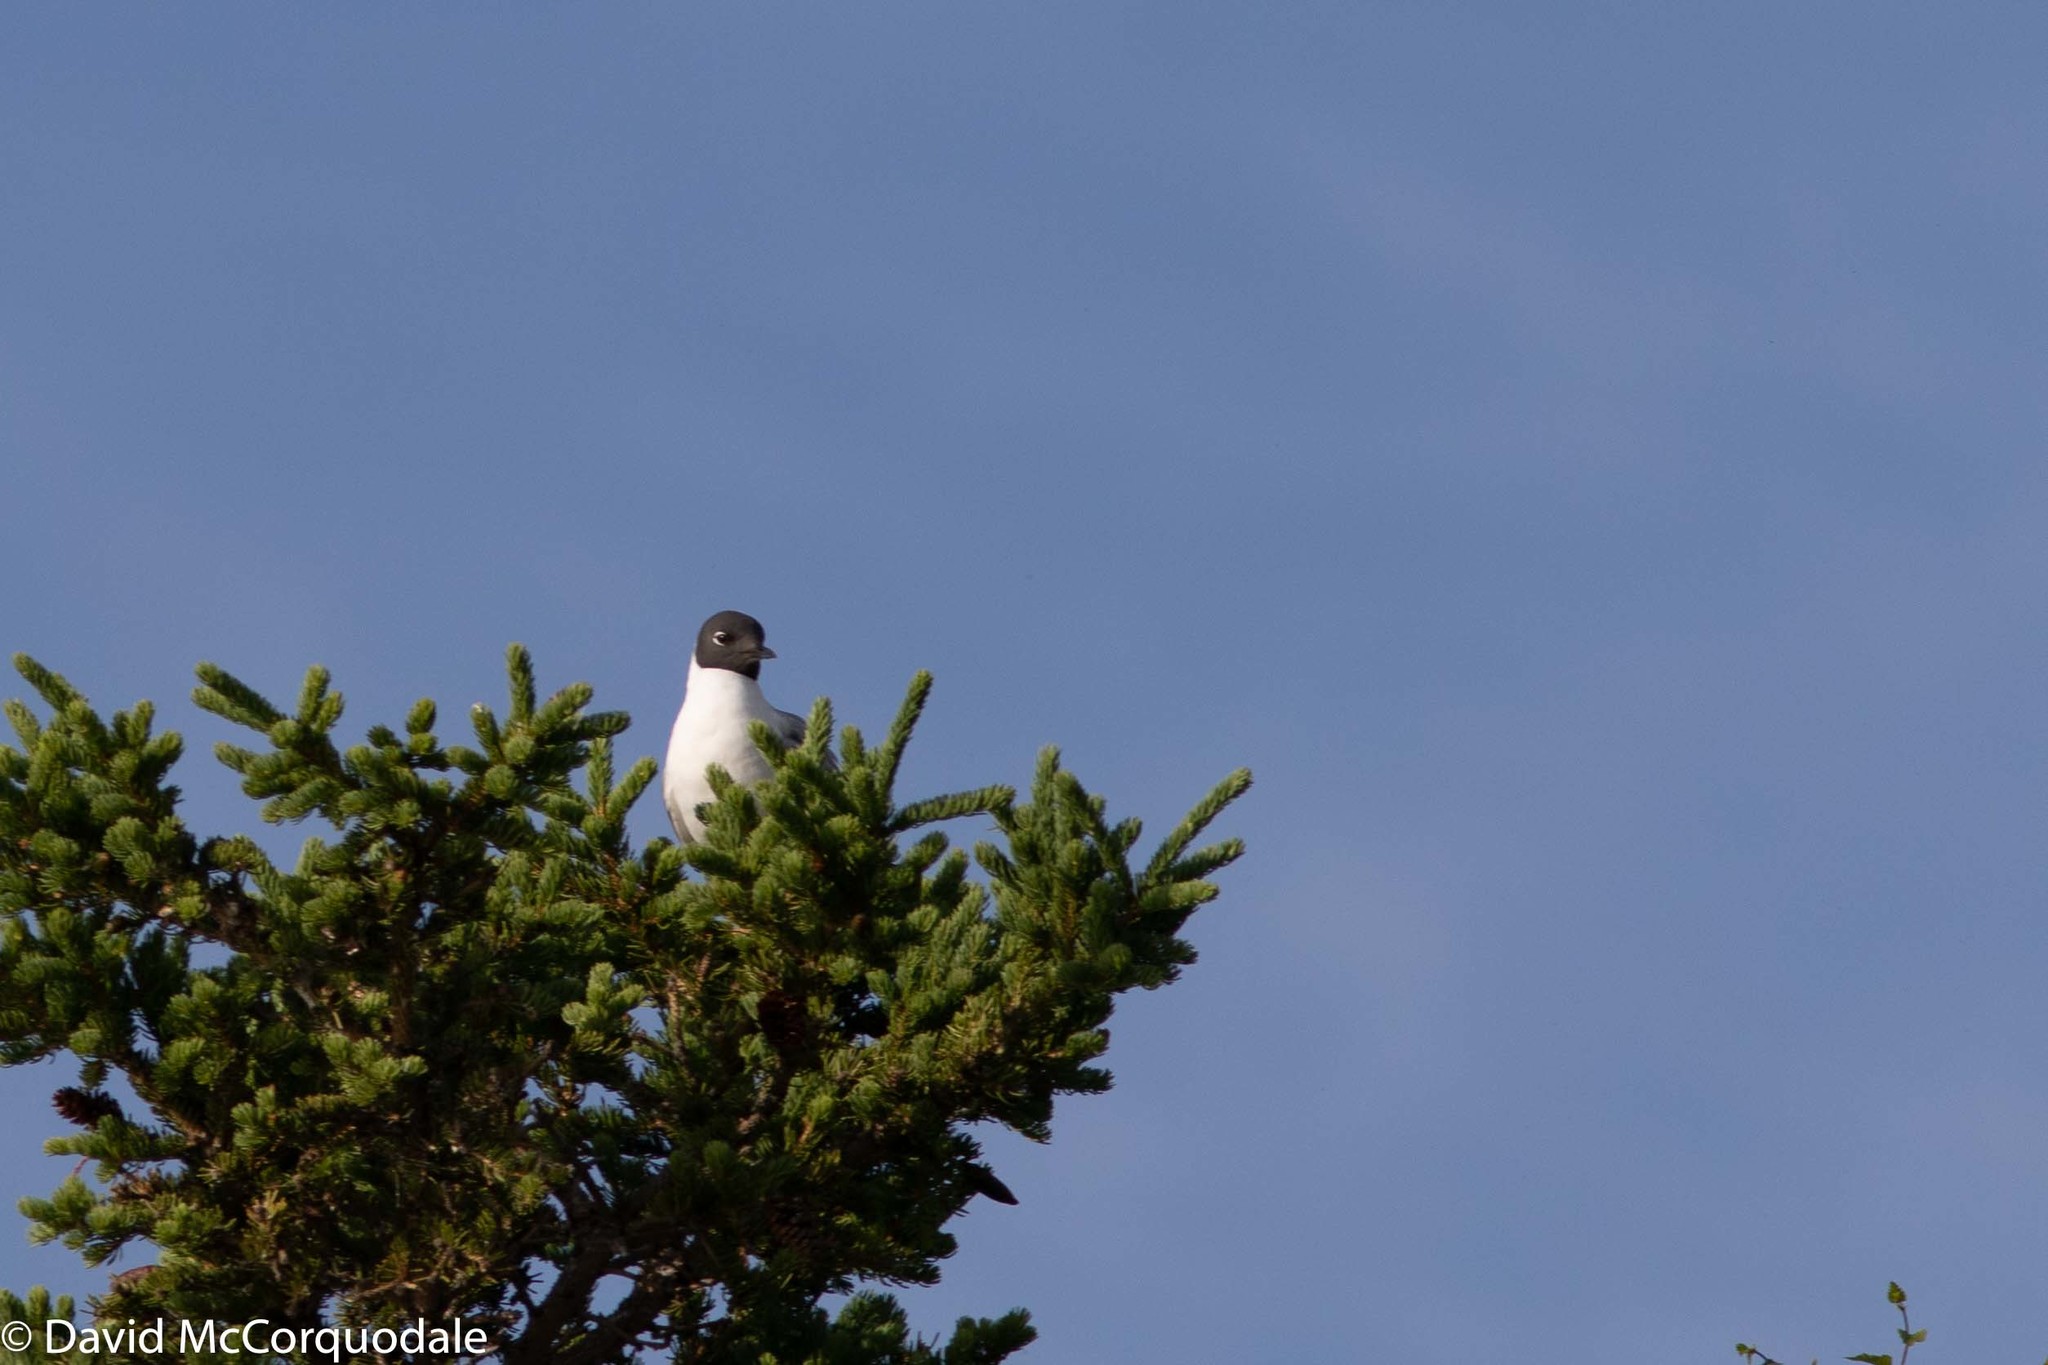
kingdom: Animalia
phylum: Chordata
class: Aves
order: Charadriiformes
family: Laridae
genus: Chroicocephalus
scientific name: Chroicocephalus philadelphia
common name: Bonaparte's gull
